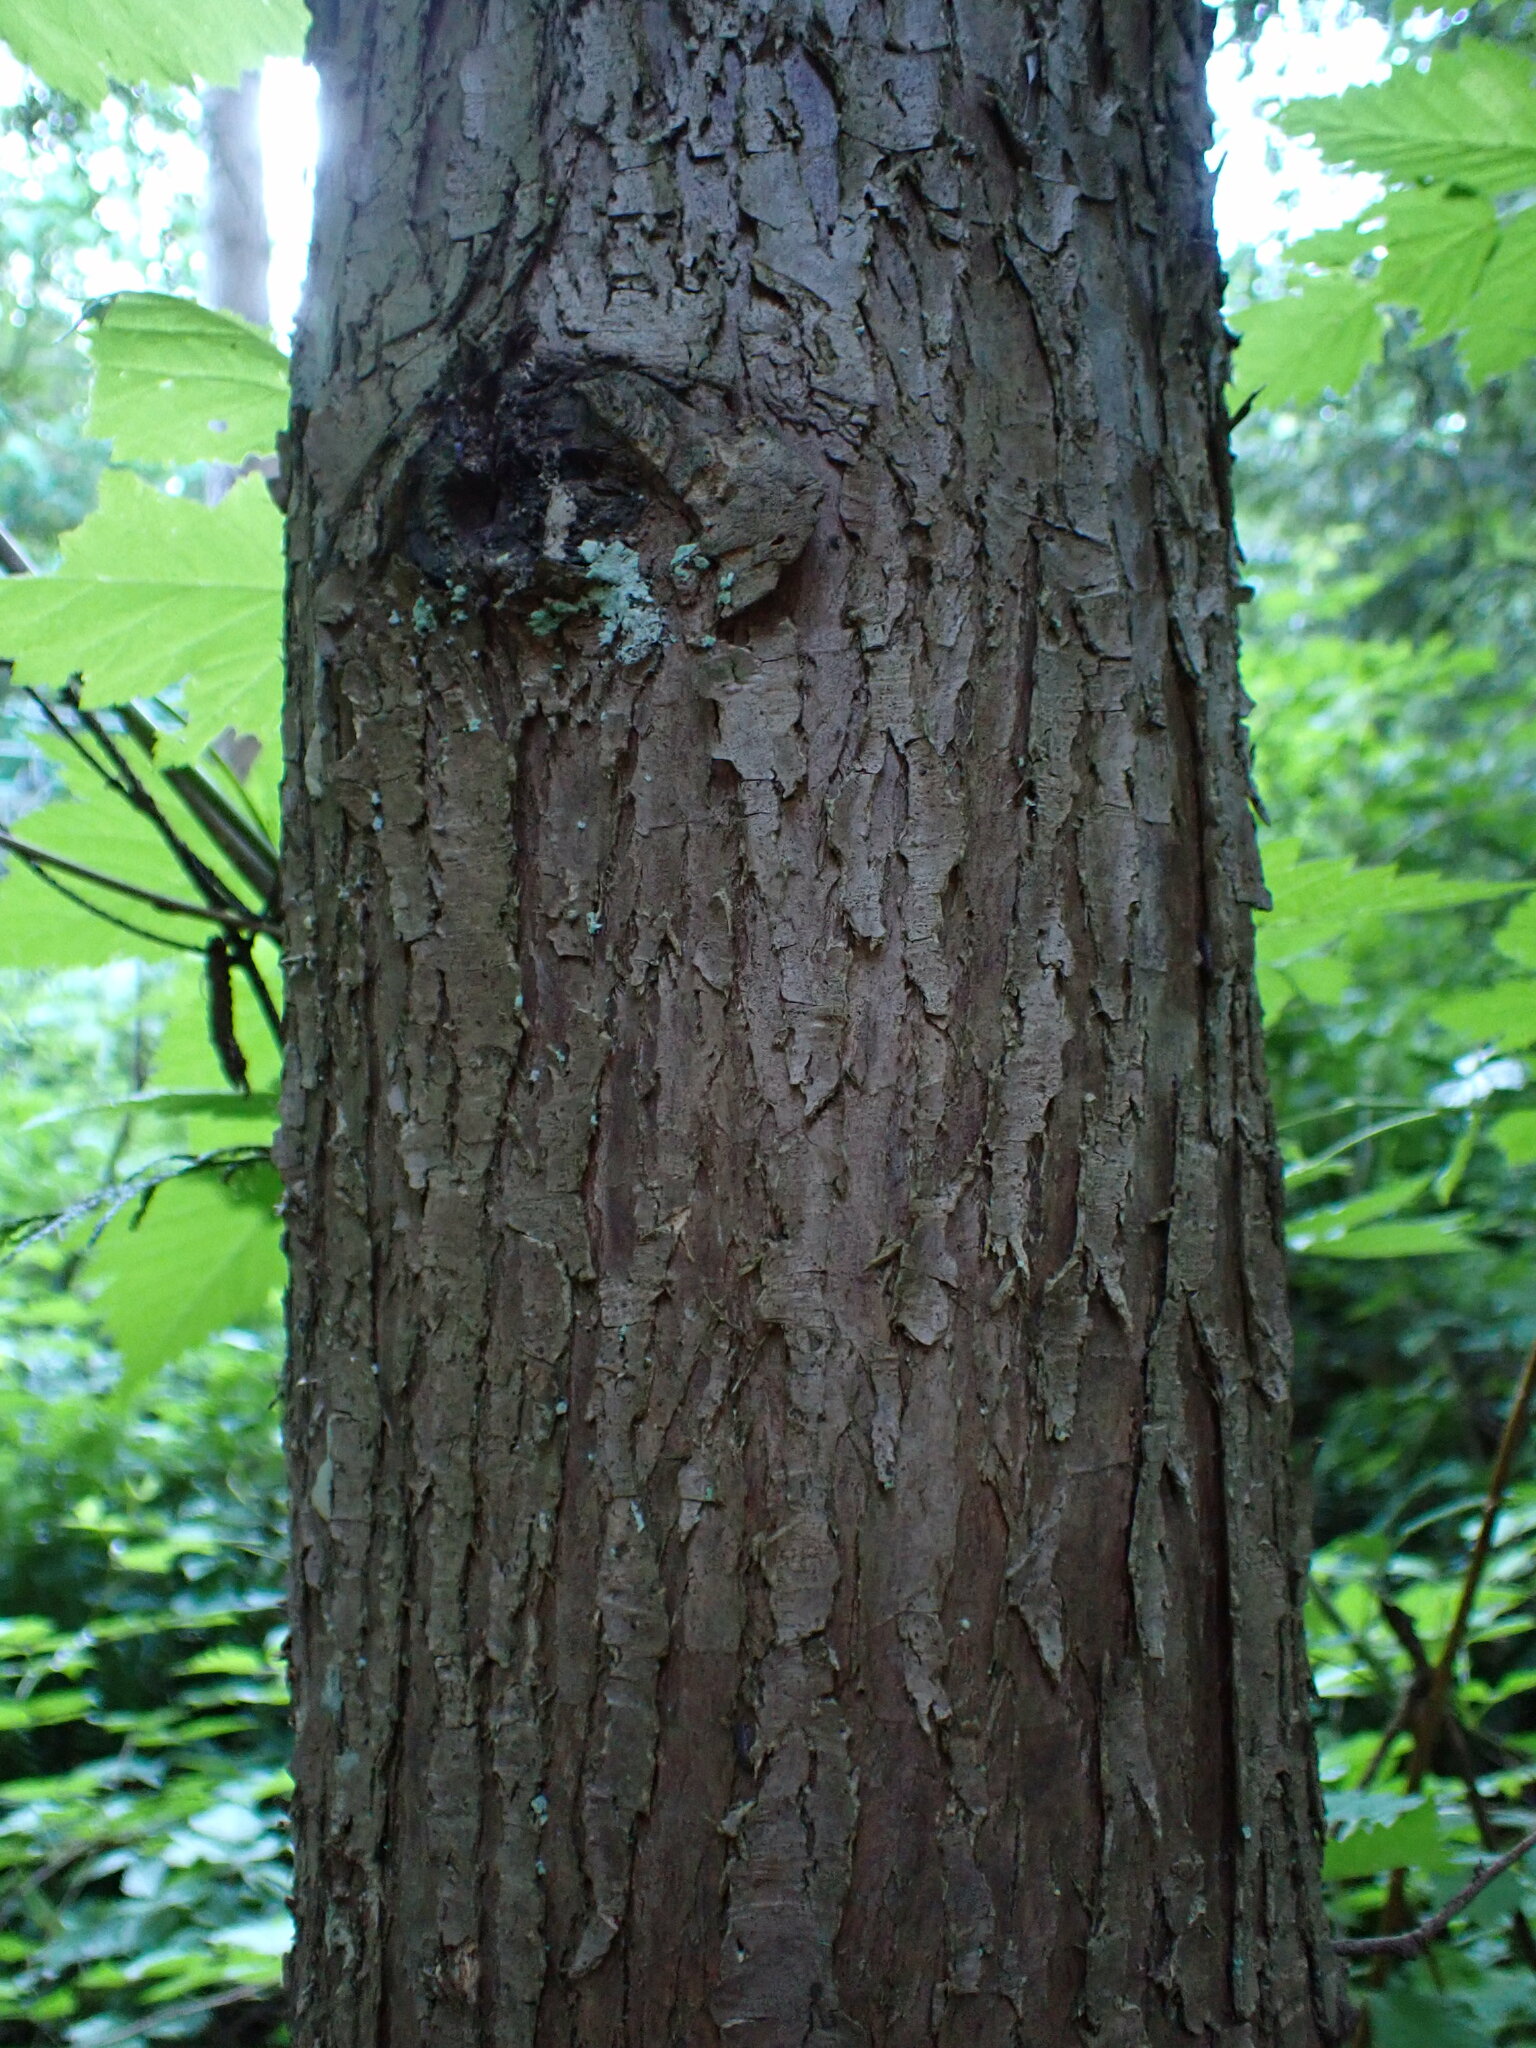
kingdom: Plantae
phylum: Tracheophyta
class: Pinopsida
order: Pinales
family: Cupressaceae
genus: Thuja
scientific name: Thuja plicata
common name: Western red-cedar
